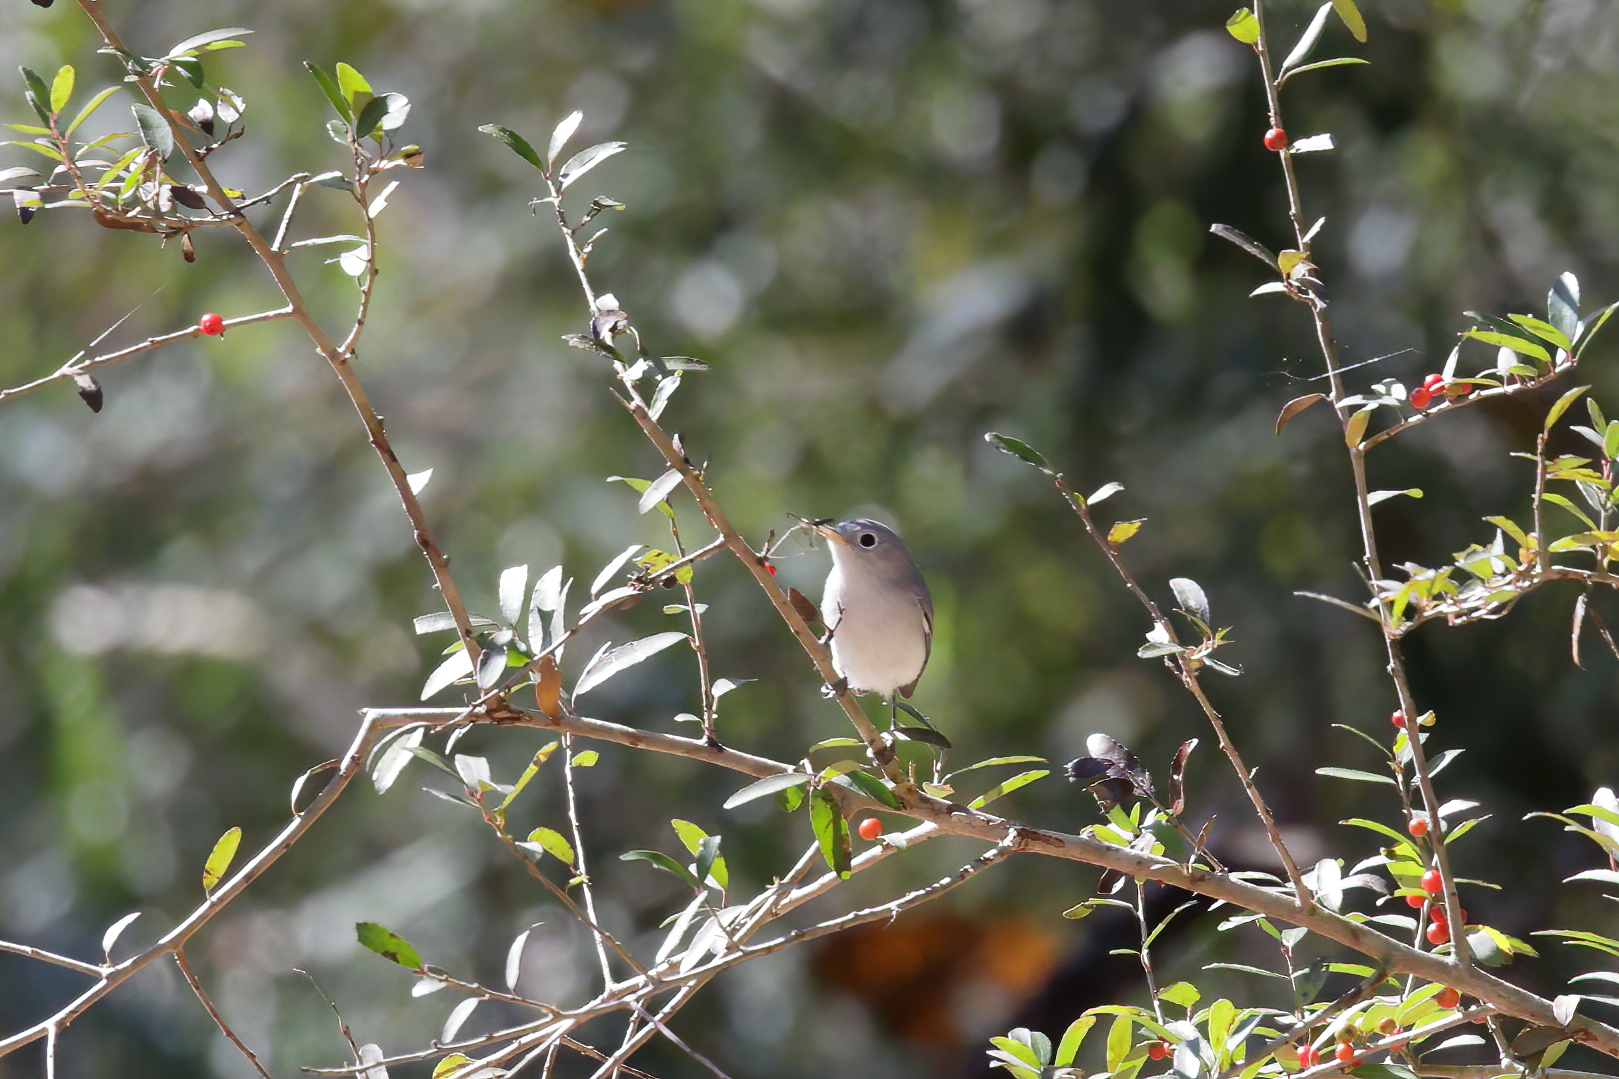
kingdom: Animalia
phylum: Chordata
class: Aves
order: Passeriformes
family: Polioptilidae
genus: Polioptila
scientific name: Polioptila caerulea
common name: Blue-gray gnatcatcher
